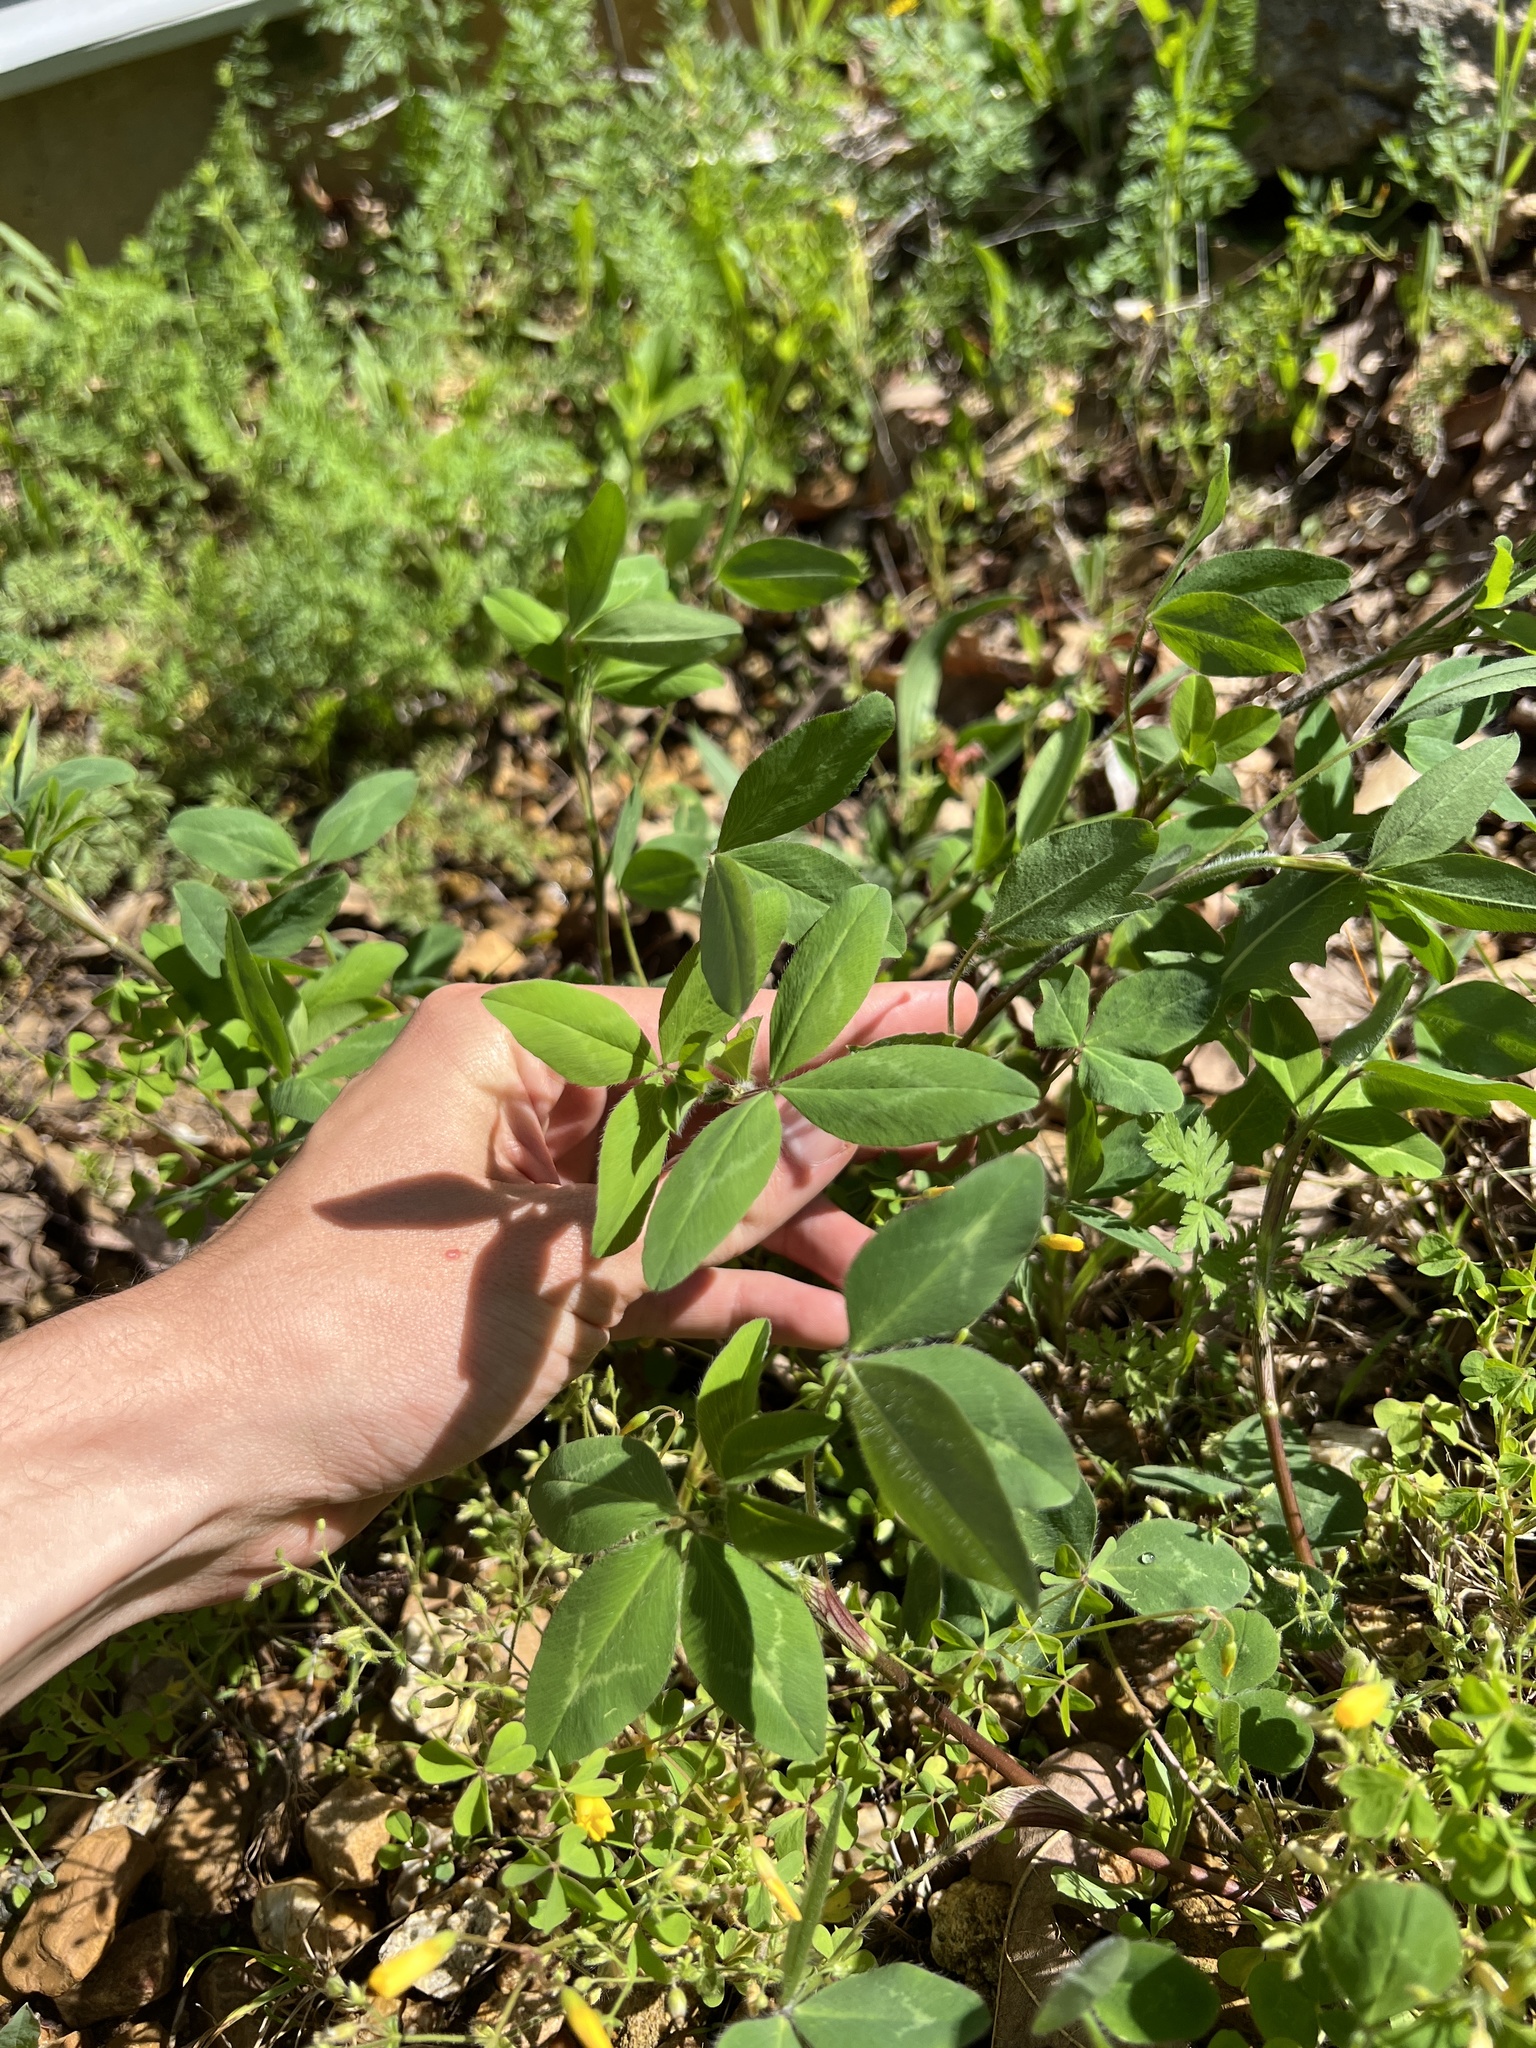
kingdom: Plantae
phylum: Tracheophyta
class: Magnoliopsida
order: Fabales
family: Fabaceae
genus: Trifolium
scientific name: Trifolium pratense
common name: Red clover
